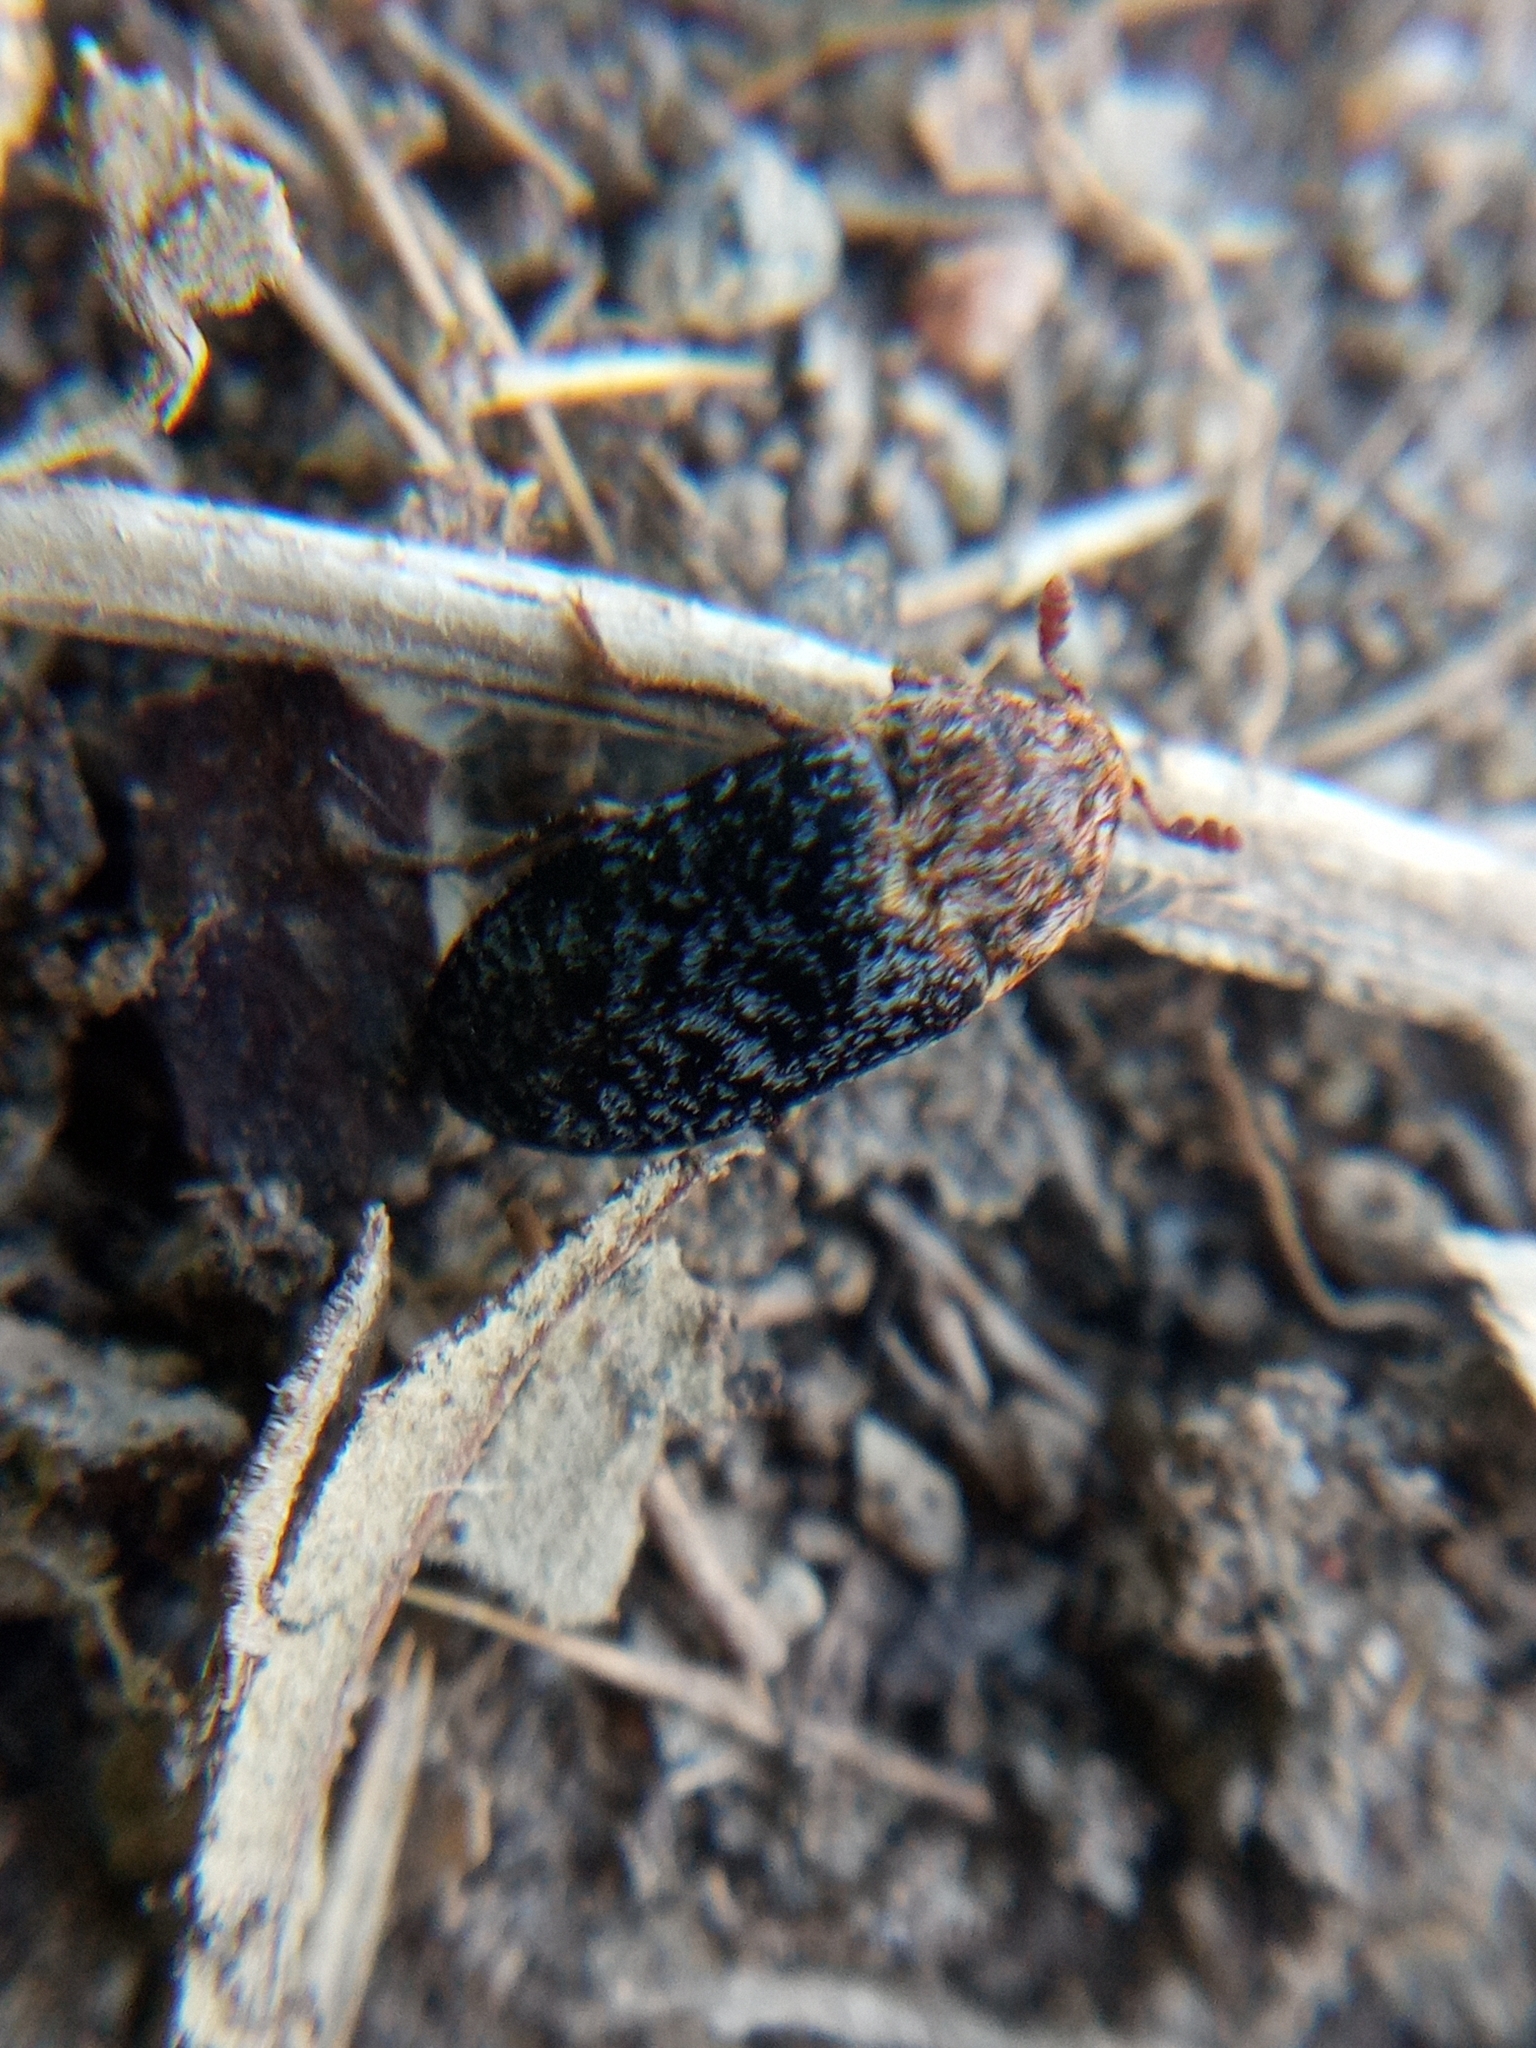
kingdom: Animalia
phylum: Arthropoda
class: Insecta
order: Coleoptera
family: Dermestidae
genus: Dermestes
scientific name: Dermestes undulatus
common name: Wavy carpet beetle
